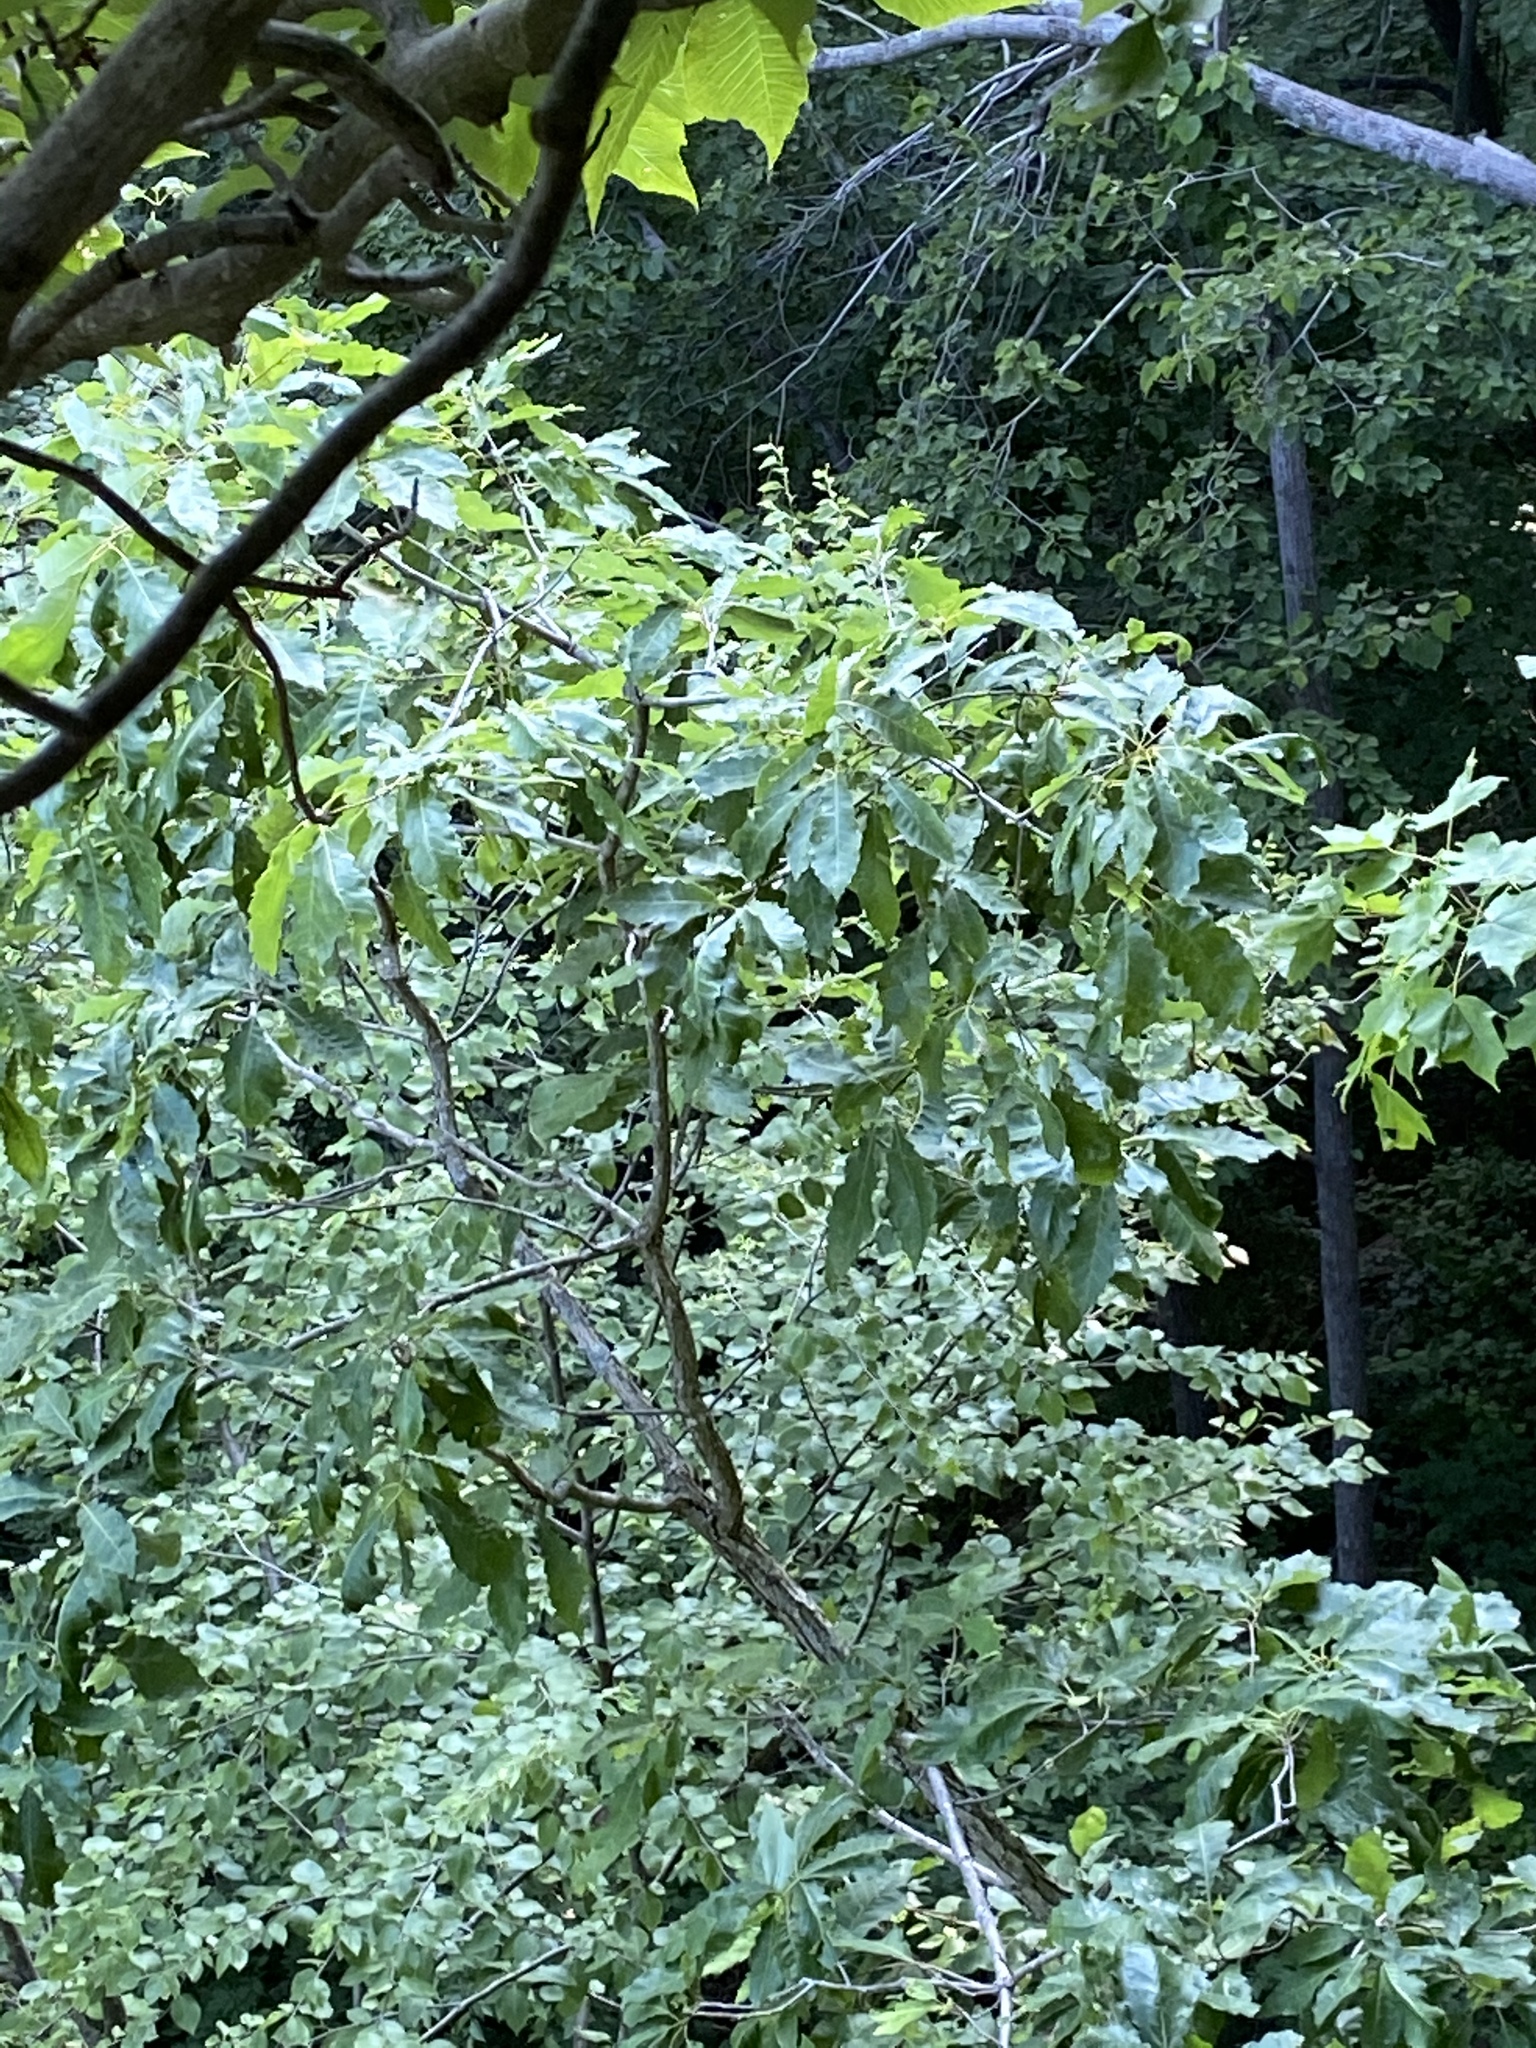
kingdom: Plantae
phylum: Tracheophyta
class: Magnoliopsida
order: Fagales
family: Fagaceae
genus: Castanea
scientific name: Castanea dentata
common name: American chestnut
